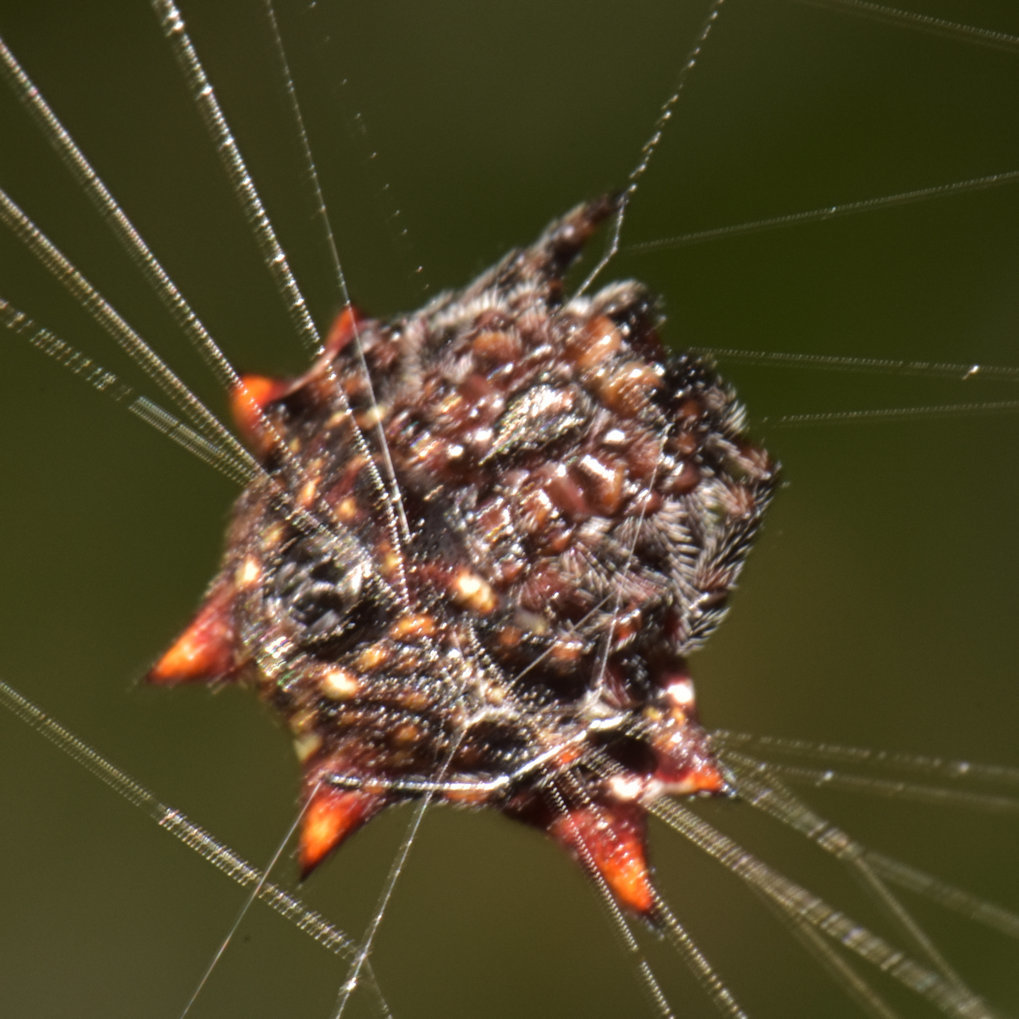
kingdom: Animalia
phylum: Arthropoda
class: Arachnida
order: Araneae
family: Araneidae
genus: Gasteracantha
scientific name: Gasteracantha cancriformis
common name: Orb weavers
